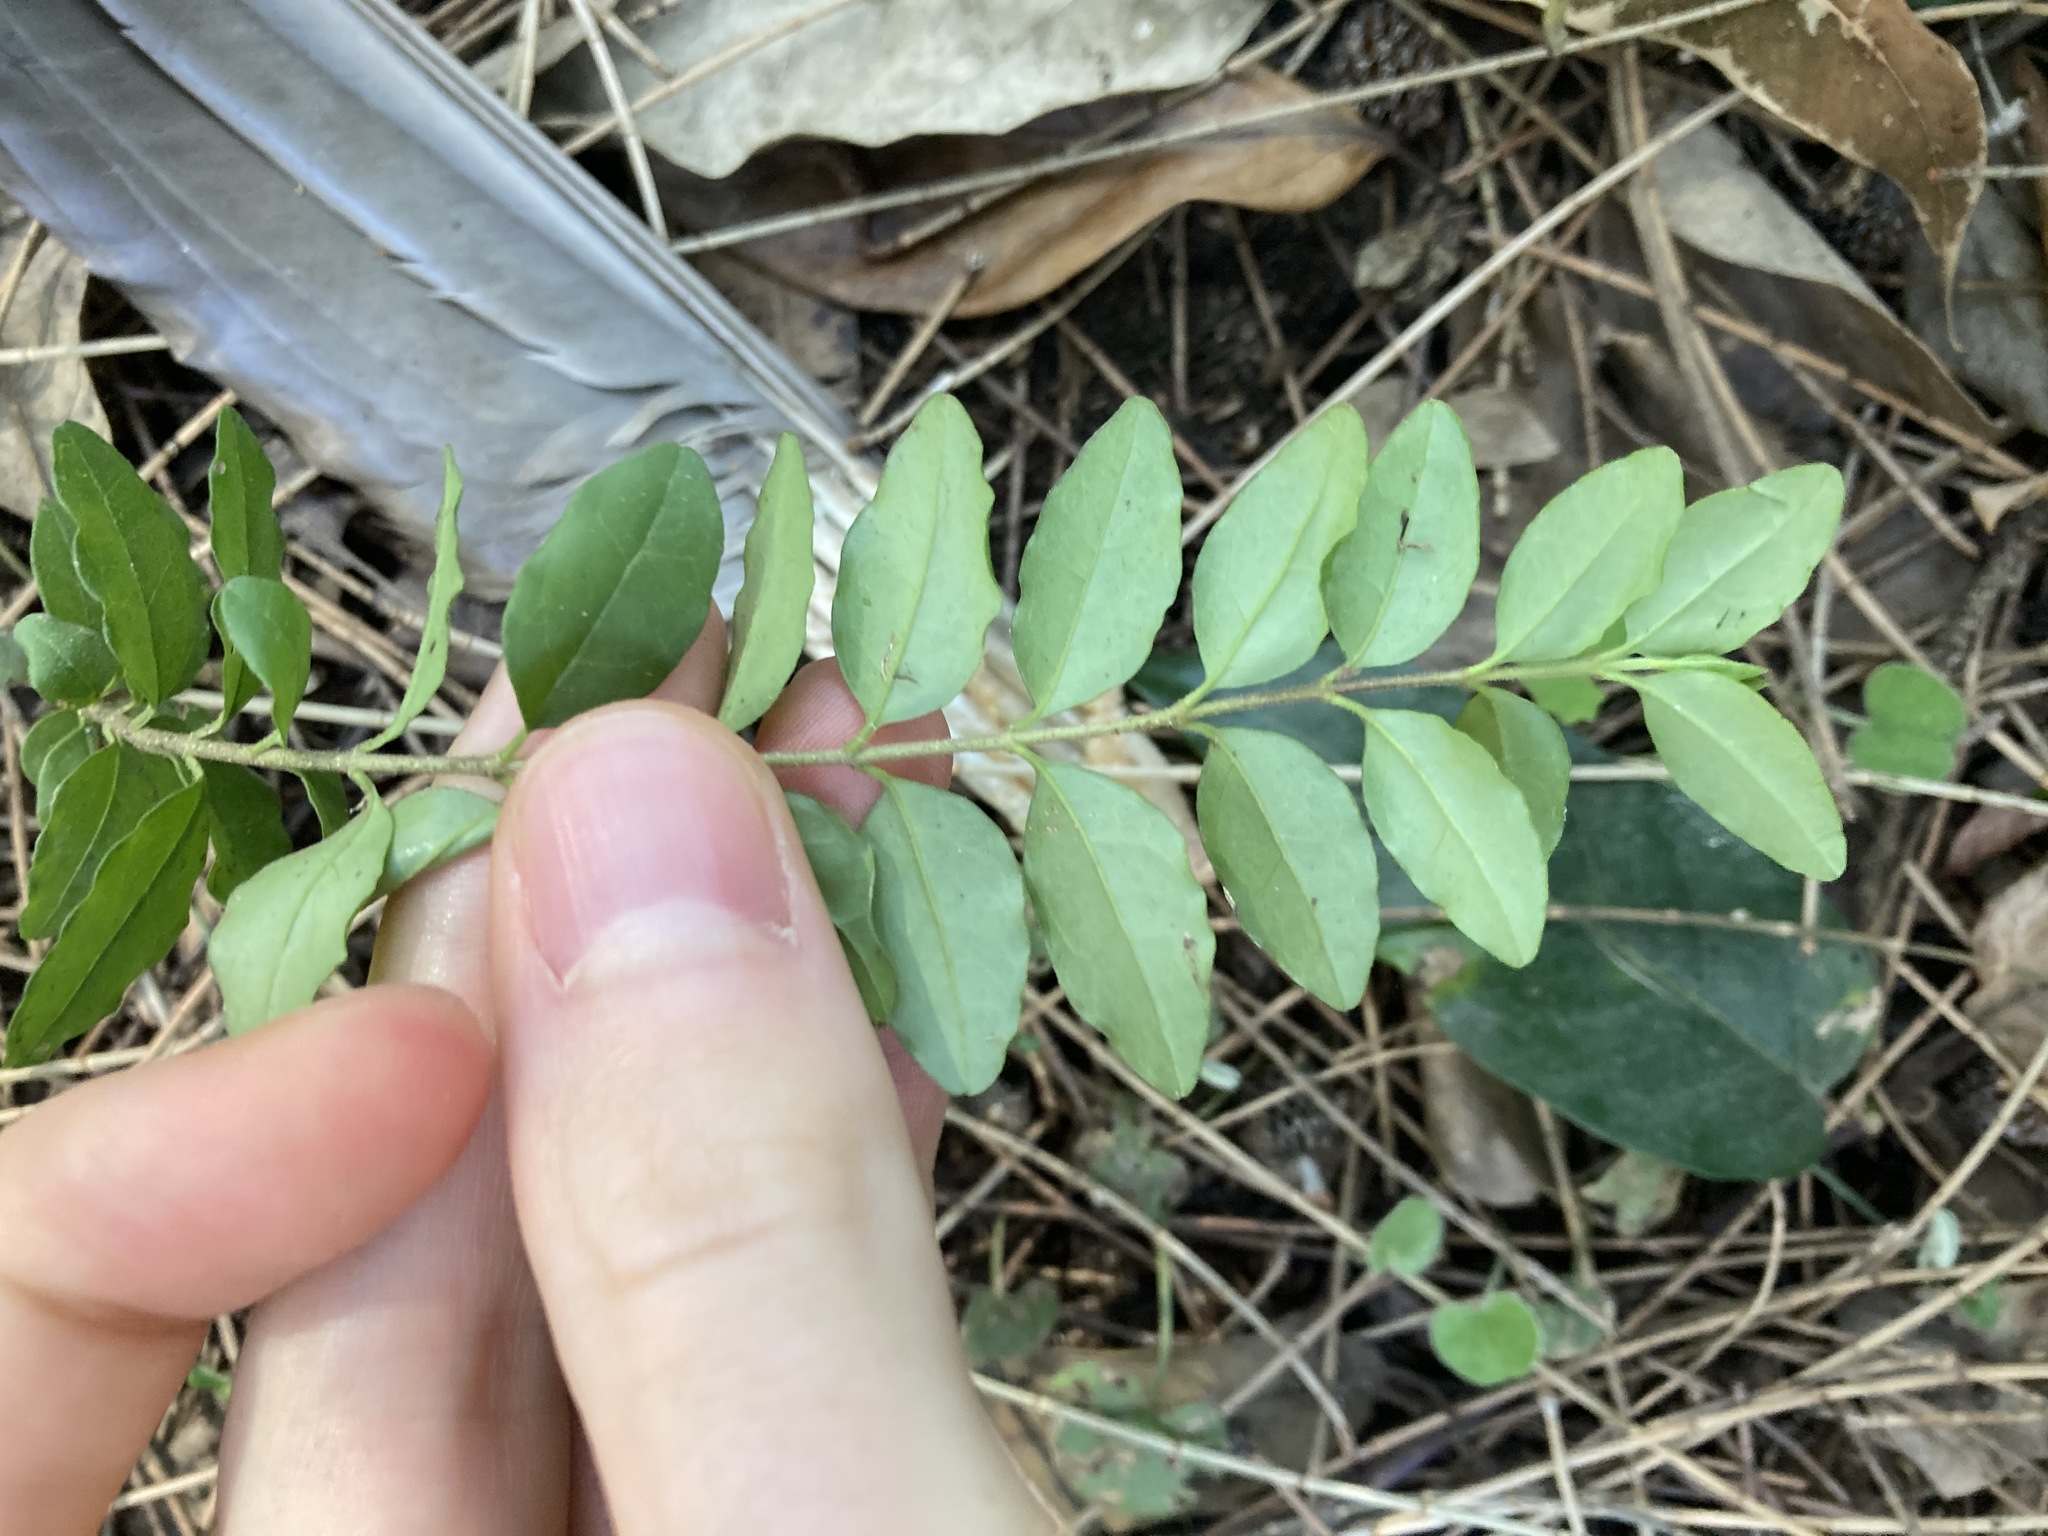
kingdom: Plantae
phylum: Tracheophyta
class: Magnoliopsida
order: Lamiales
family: Oleaceae
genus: Ligustrum
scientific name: Ligustrum sinense
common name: Chinese privet
